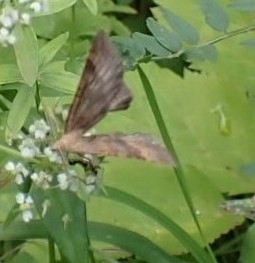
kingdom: Animalia
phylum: Arthropoda
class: Insecta
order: Lepidoptera
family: Geometridae
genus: Scotopteryx
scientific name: Scotopteryx chenopodiata
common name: Shaded broad-bar
